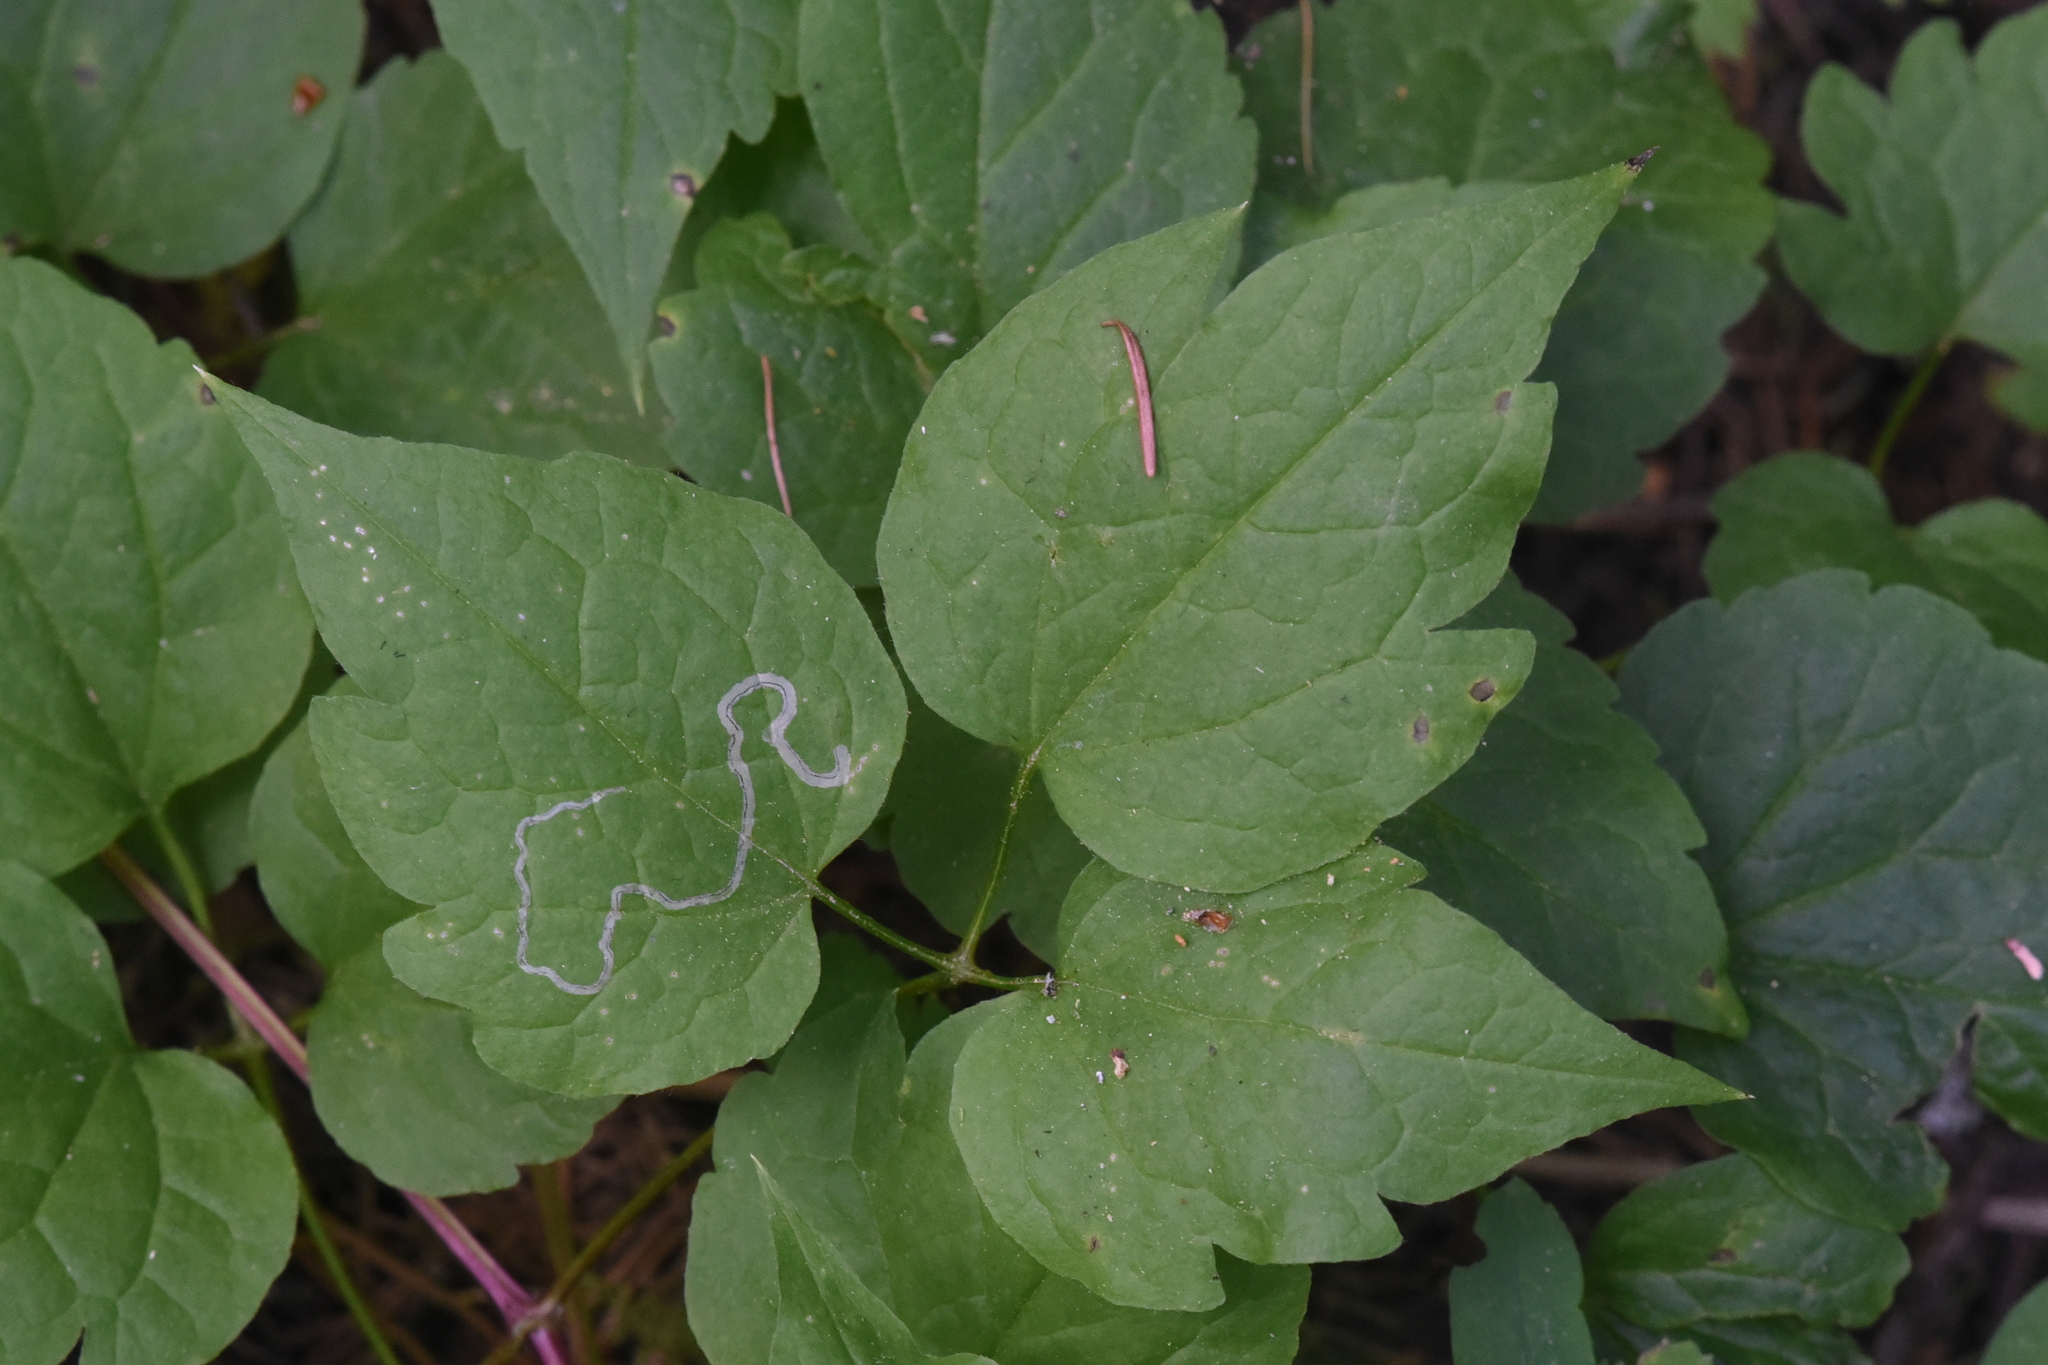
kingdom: Plantae
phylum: Tracheophyta
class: Magnoliopsida
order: Ranunculales
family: Ranunculaceae
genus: Clematis
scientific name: Clematis occidentalis
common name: Purple clematis
